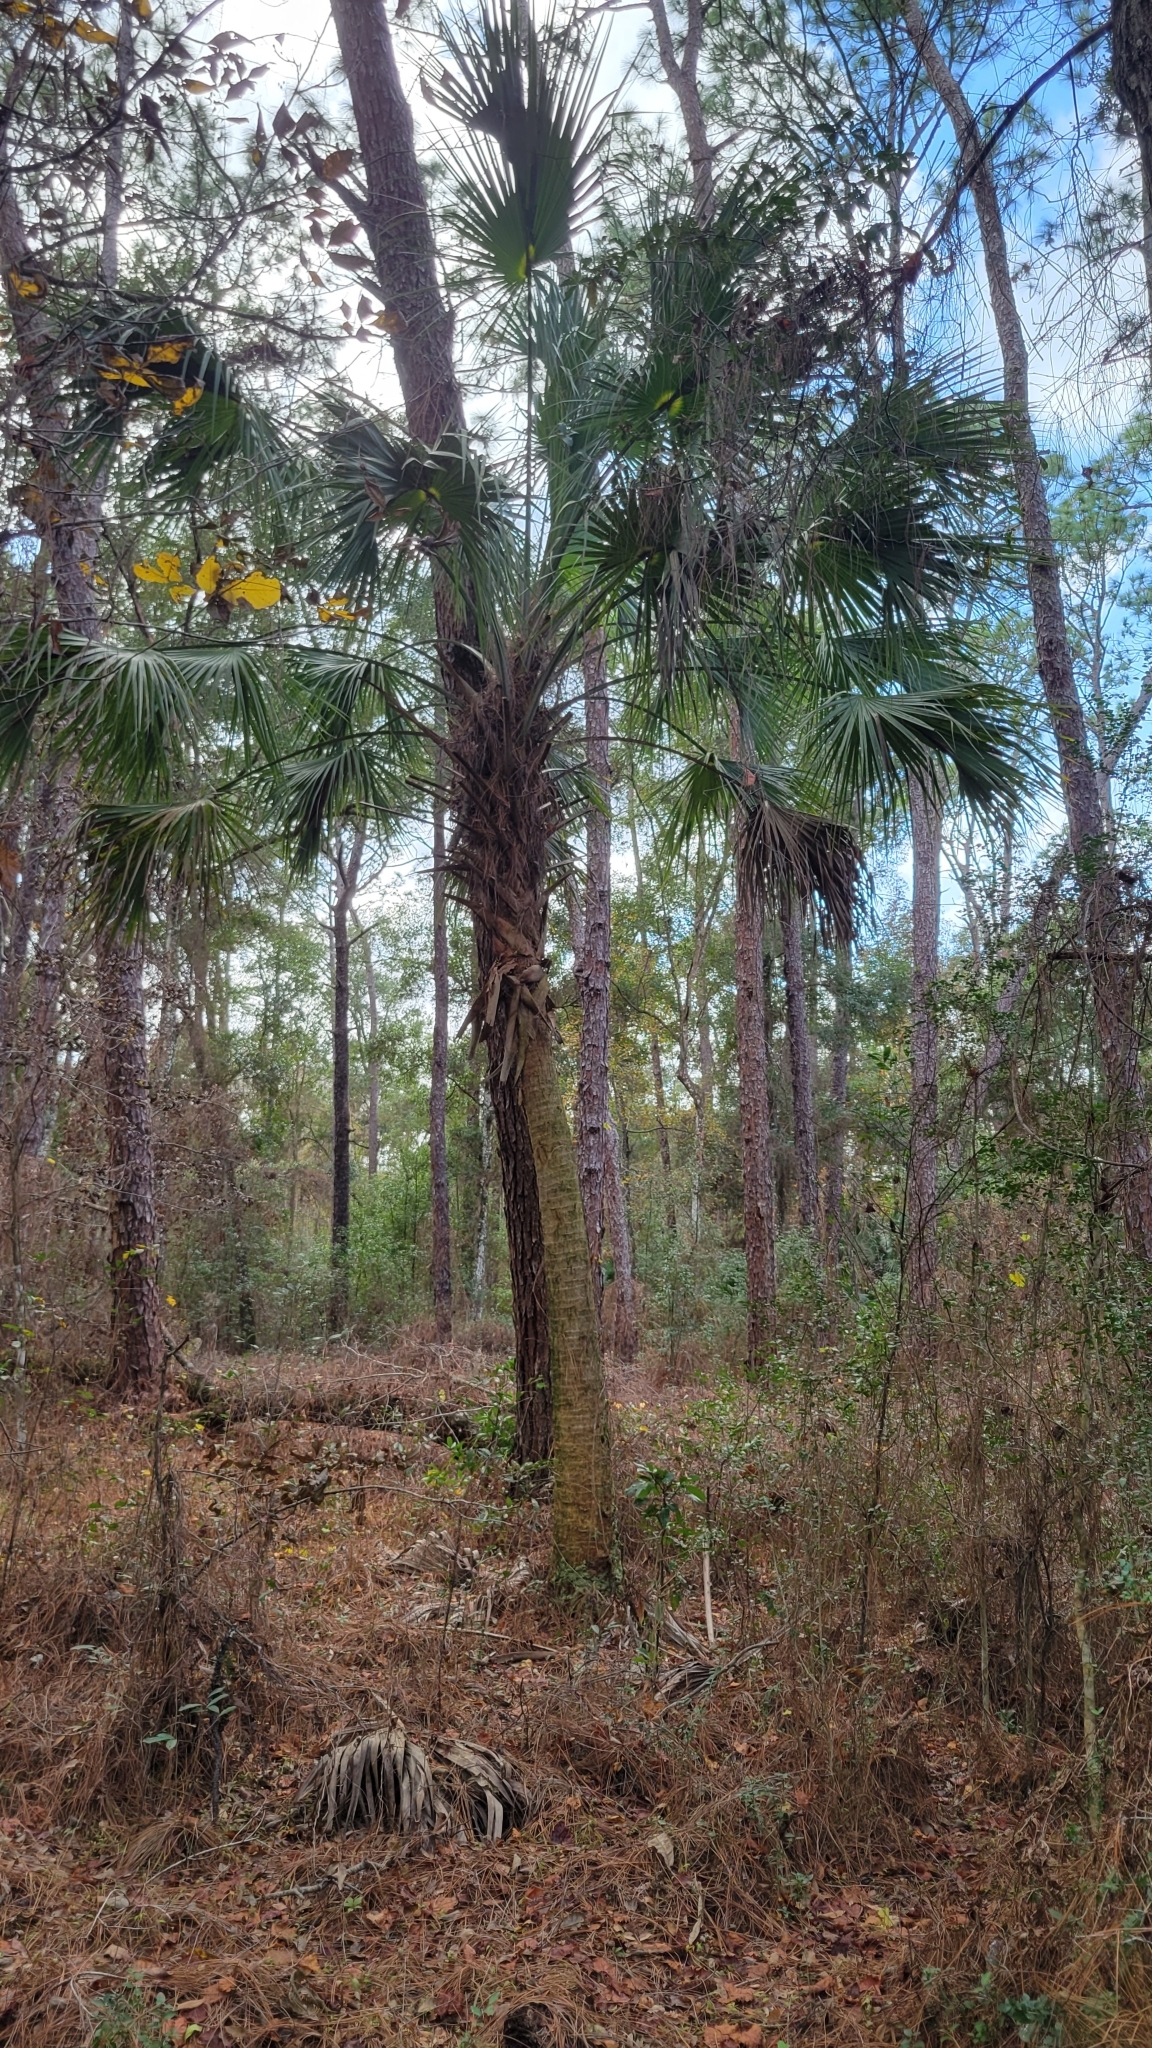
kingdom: Plantae
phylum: Tracheophyta
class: Liliopsida
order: Arecales
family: Arecaceae
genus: Sabal
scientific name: Sabal palmetto
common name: Blue palmetto
